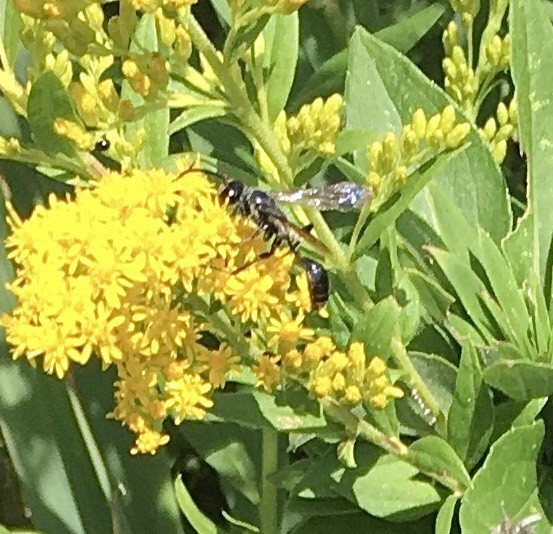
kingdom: Animalia
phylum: Arthropoda
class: Insecta
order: Hymenoptera
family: Sphecidae
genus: Isodontia
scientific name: Isodontia mexicana
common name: Mud dauber
